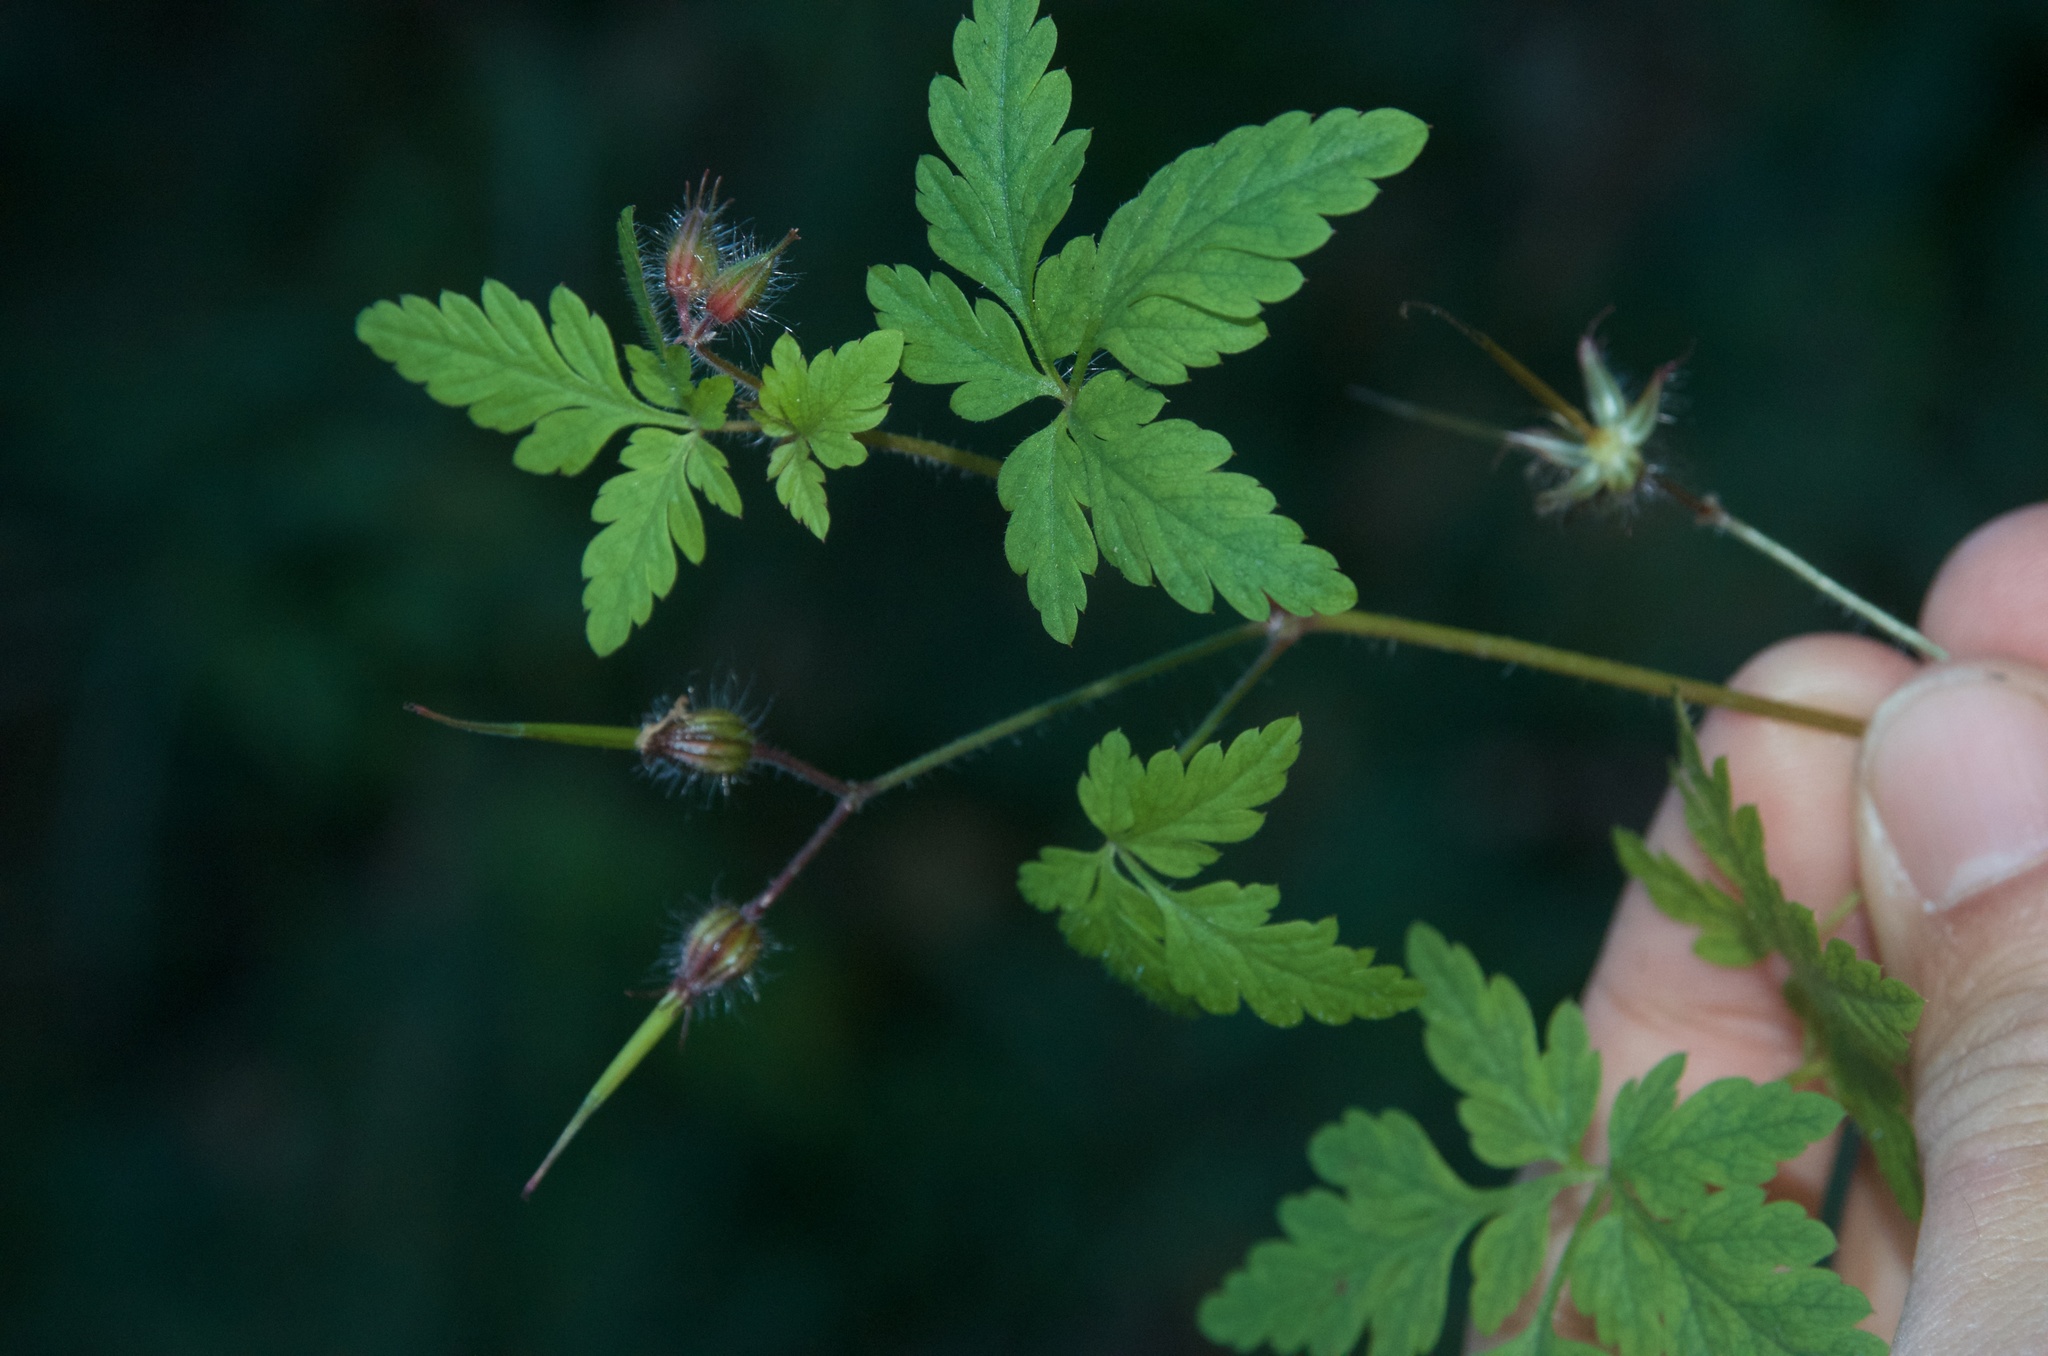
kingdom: Plantae
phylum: Tracheophyta
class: Magnoliopsida
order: Geraniales
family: Geraniaceae
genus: Geranium
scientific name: Geranium robertianum
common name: Herb-robert
